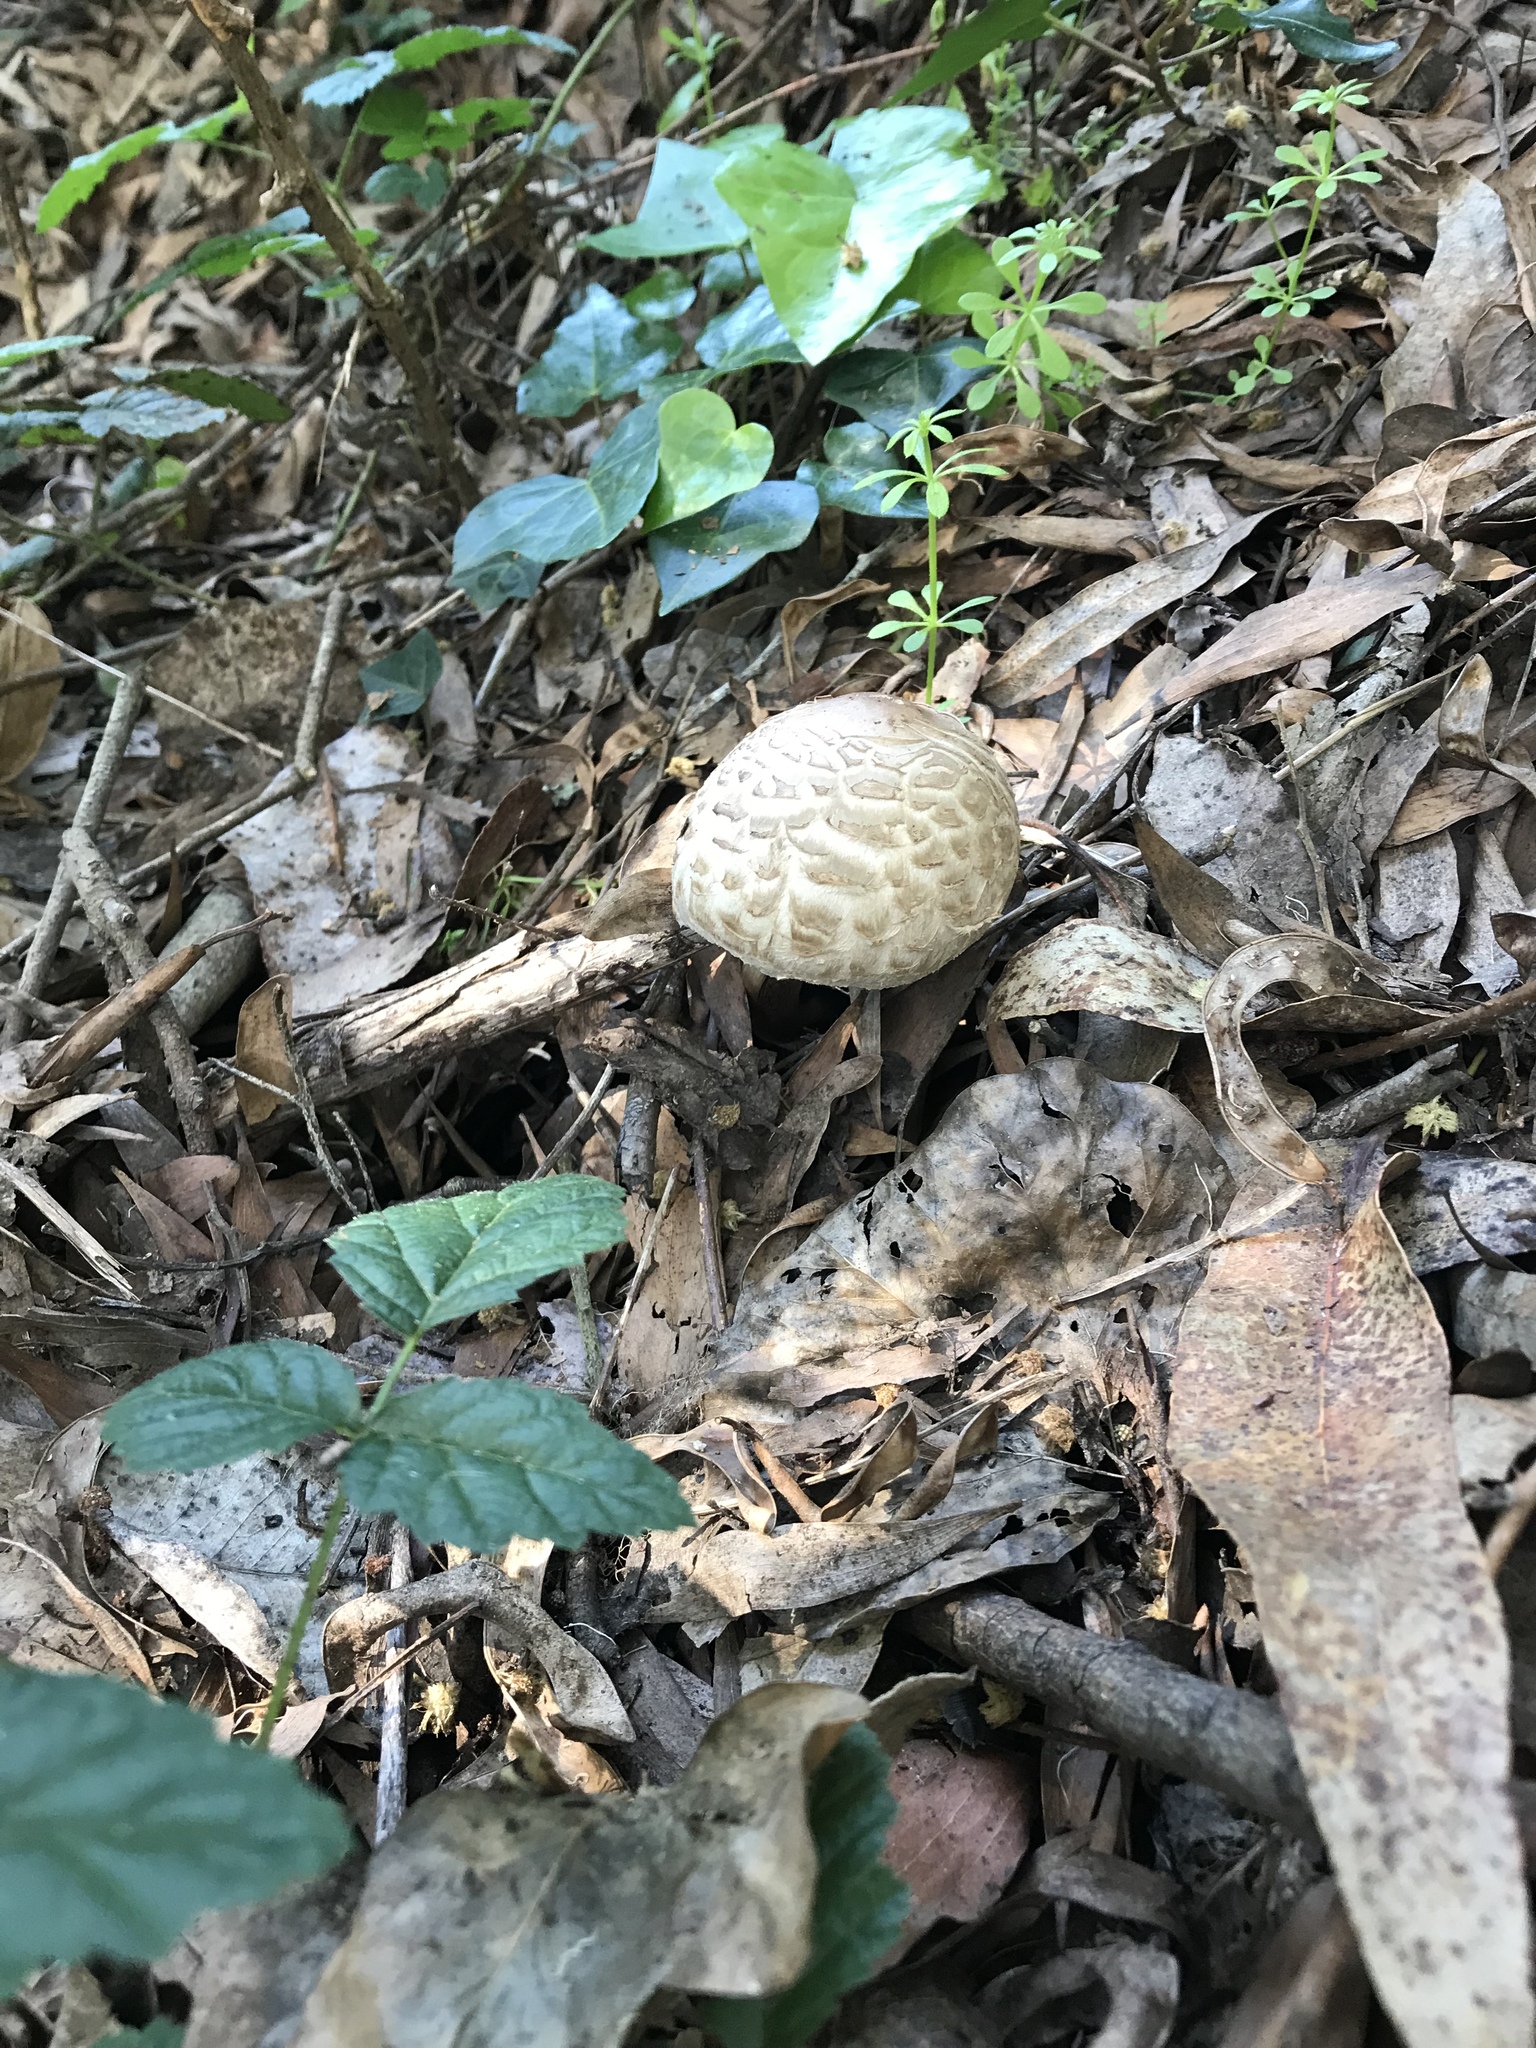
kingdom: Fungi
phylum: Basidiomycota
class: Agaricomycetes
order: Agaricales
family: Agaricaceae
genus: Chlorophyllum
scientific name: Chlorophyllum olivieri
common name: Conifer parasol
